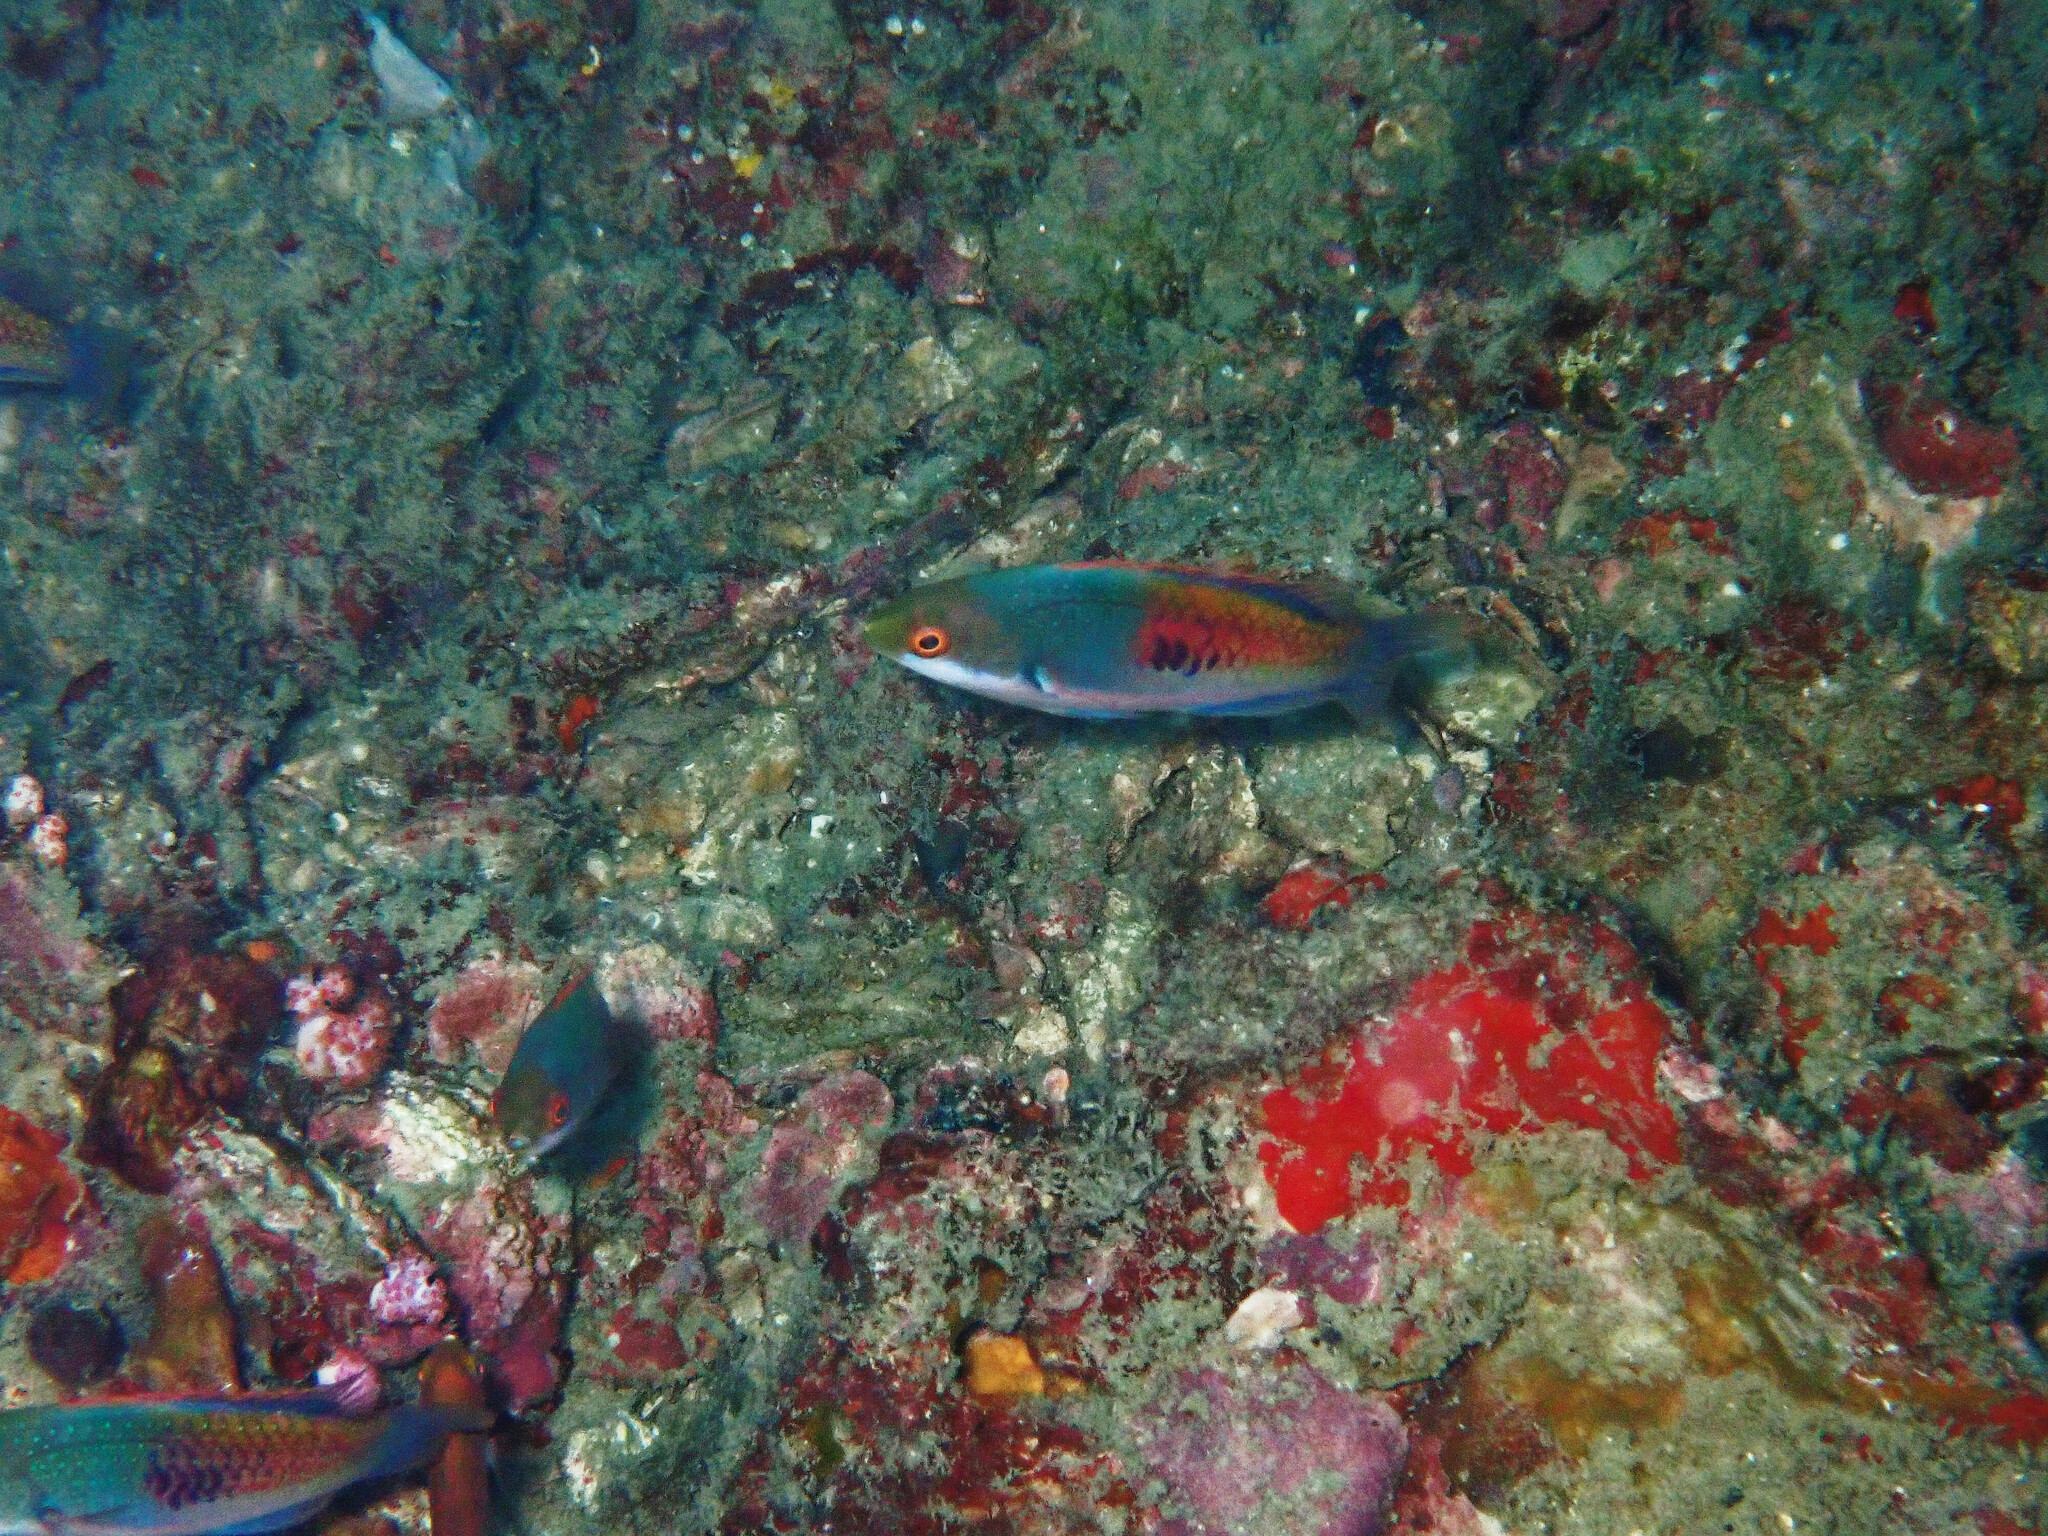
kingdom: Animalia
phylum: Chordata
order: Perciformes
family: Labridae
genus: Cirrhilabrus
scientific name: Cirrhilabrus cyanopleura
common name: Coralline wrasse
